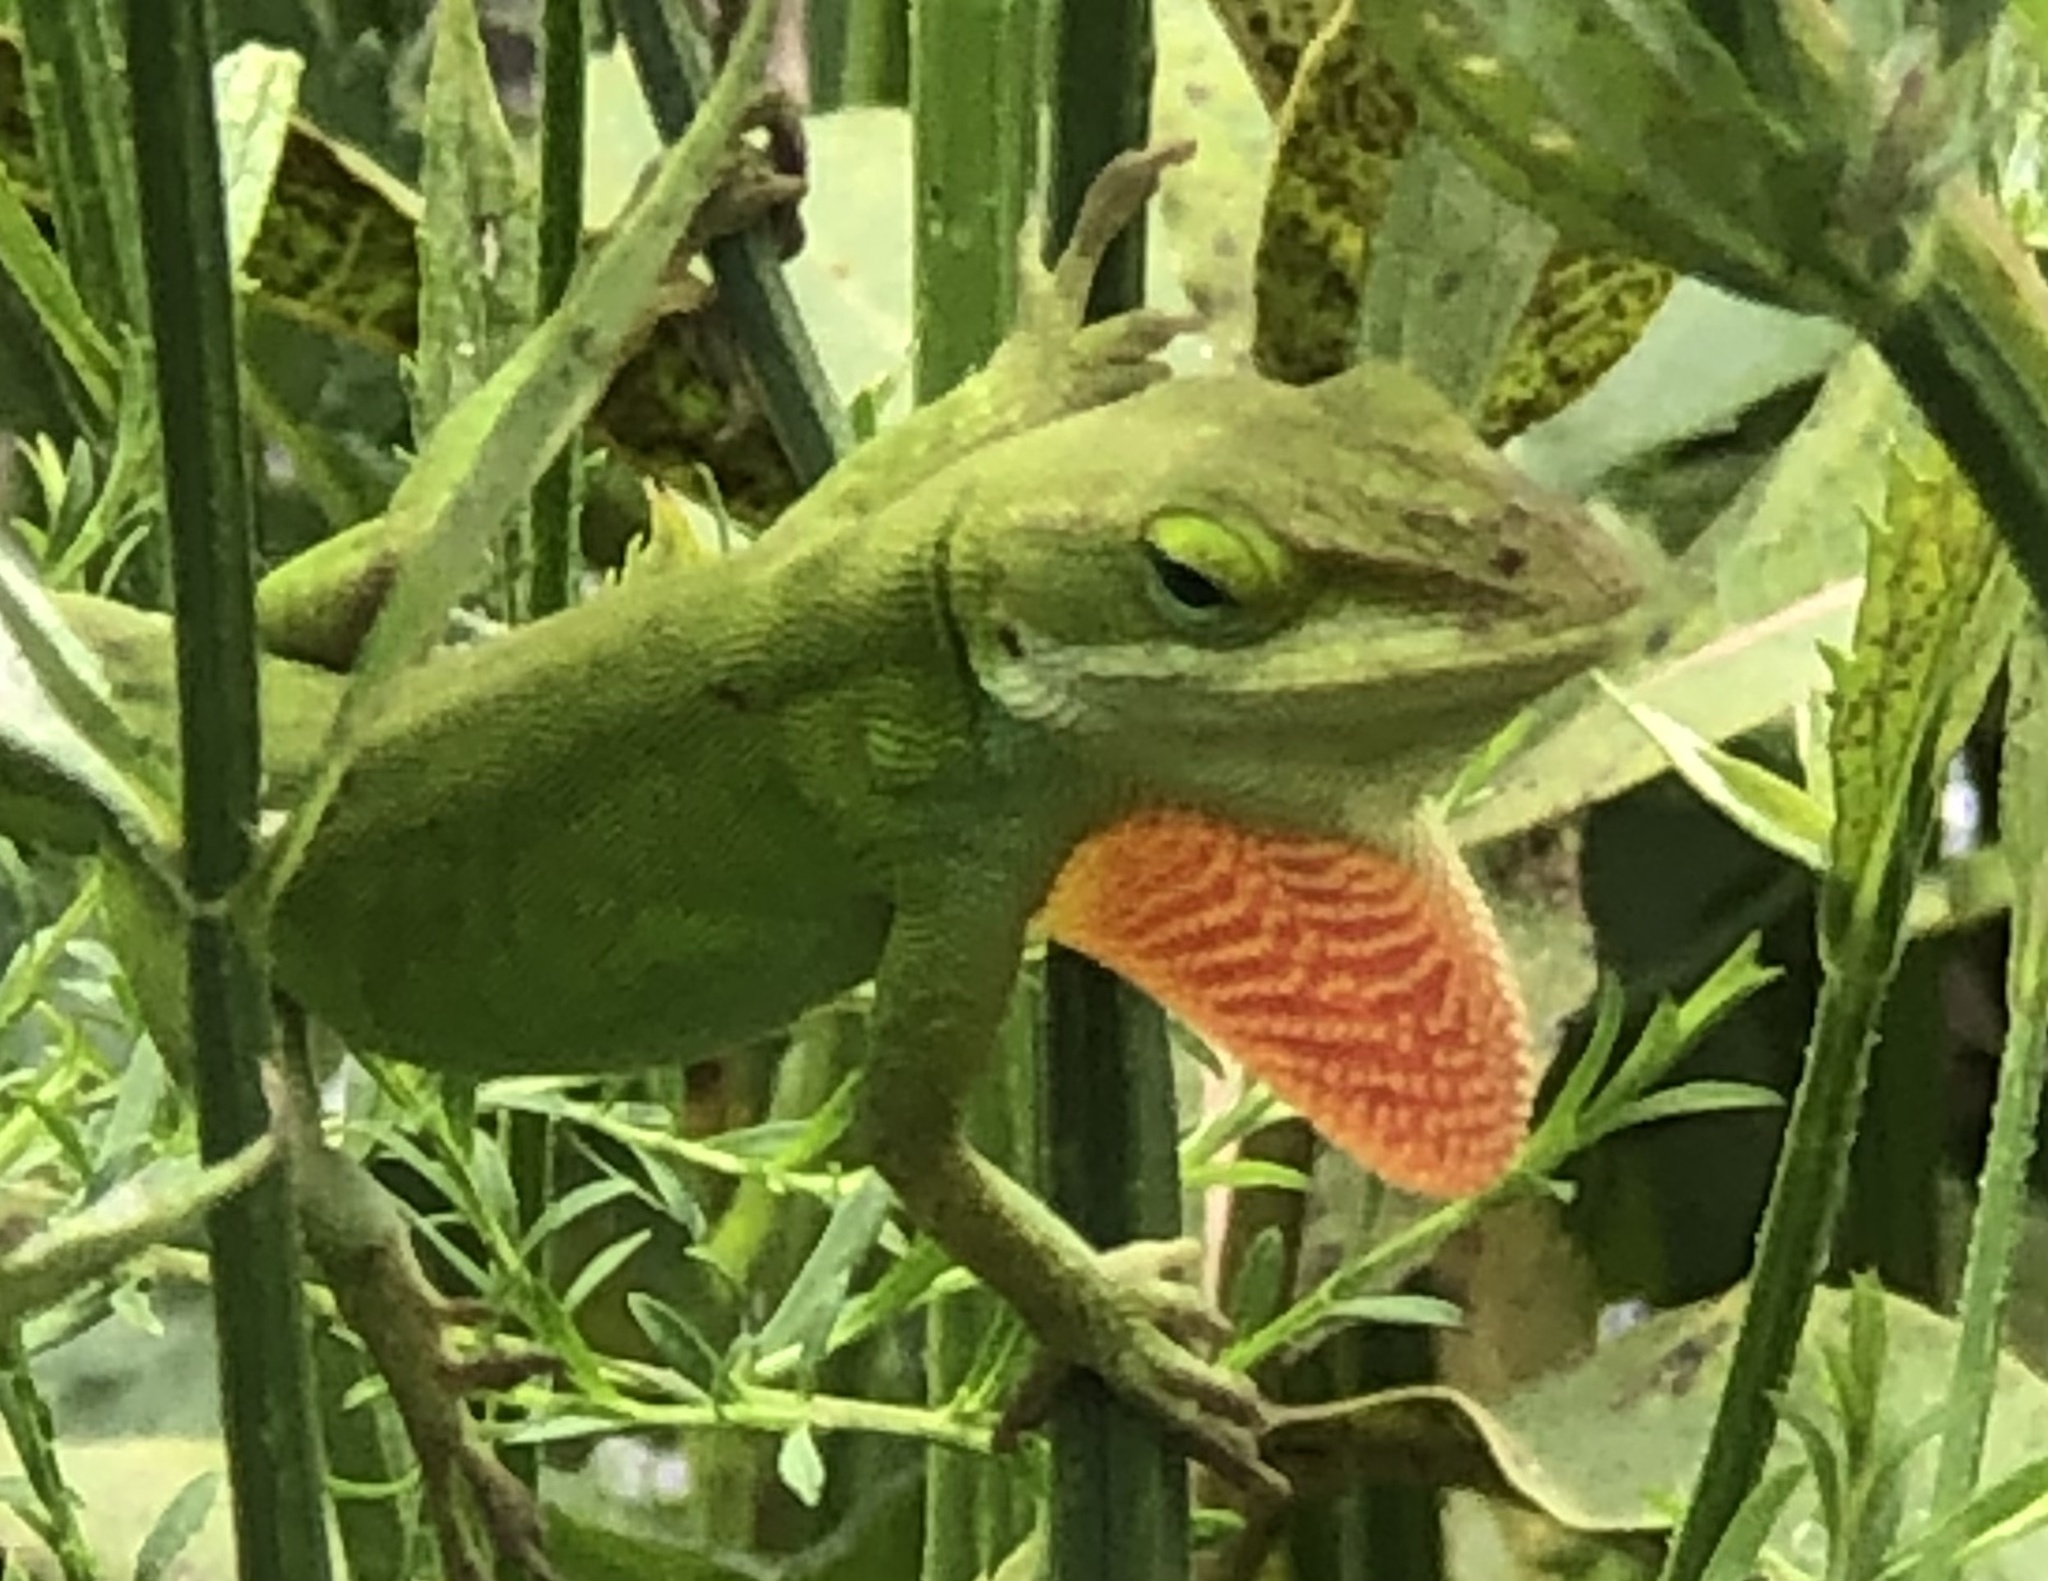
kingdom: Animalia
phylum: Chordata
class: Squamata
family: Dactyloidae
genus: Anolis
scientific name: Anolis carolinensis
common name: Green anole
